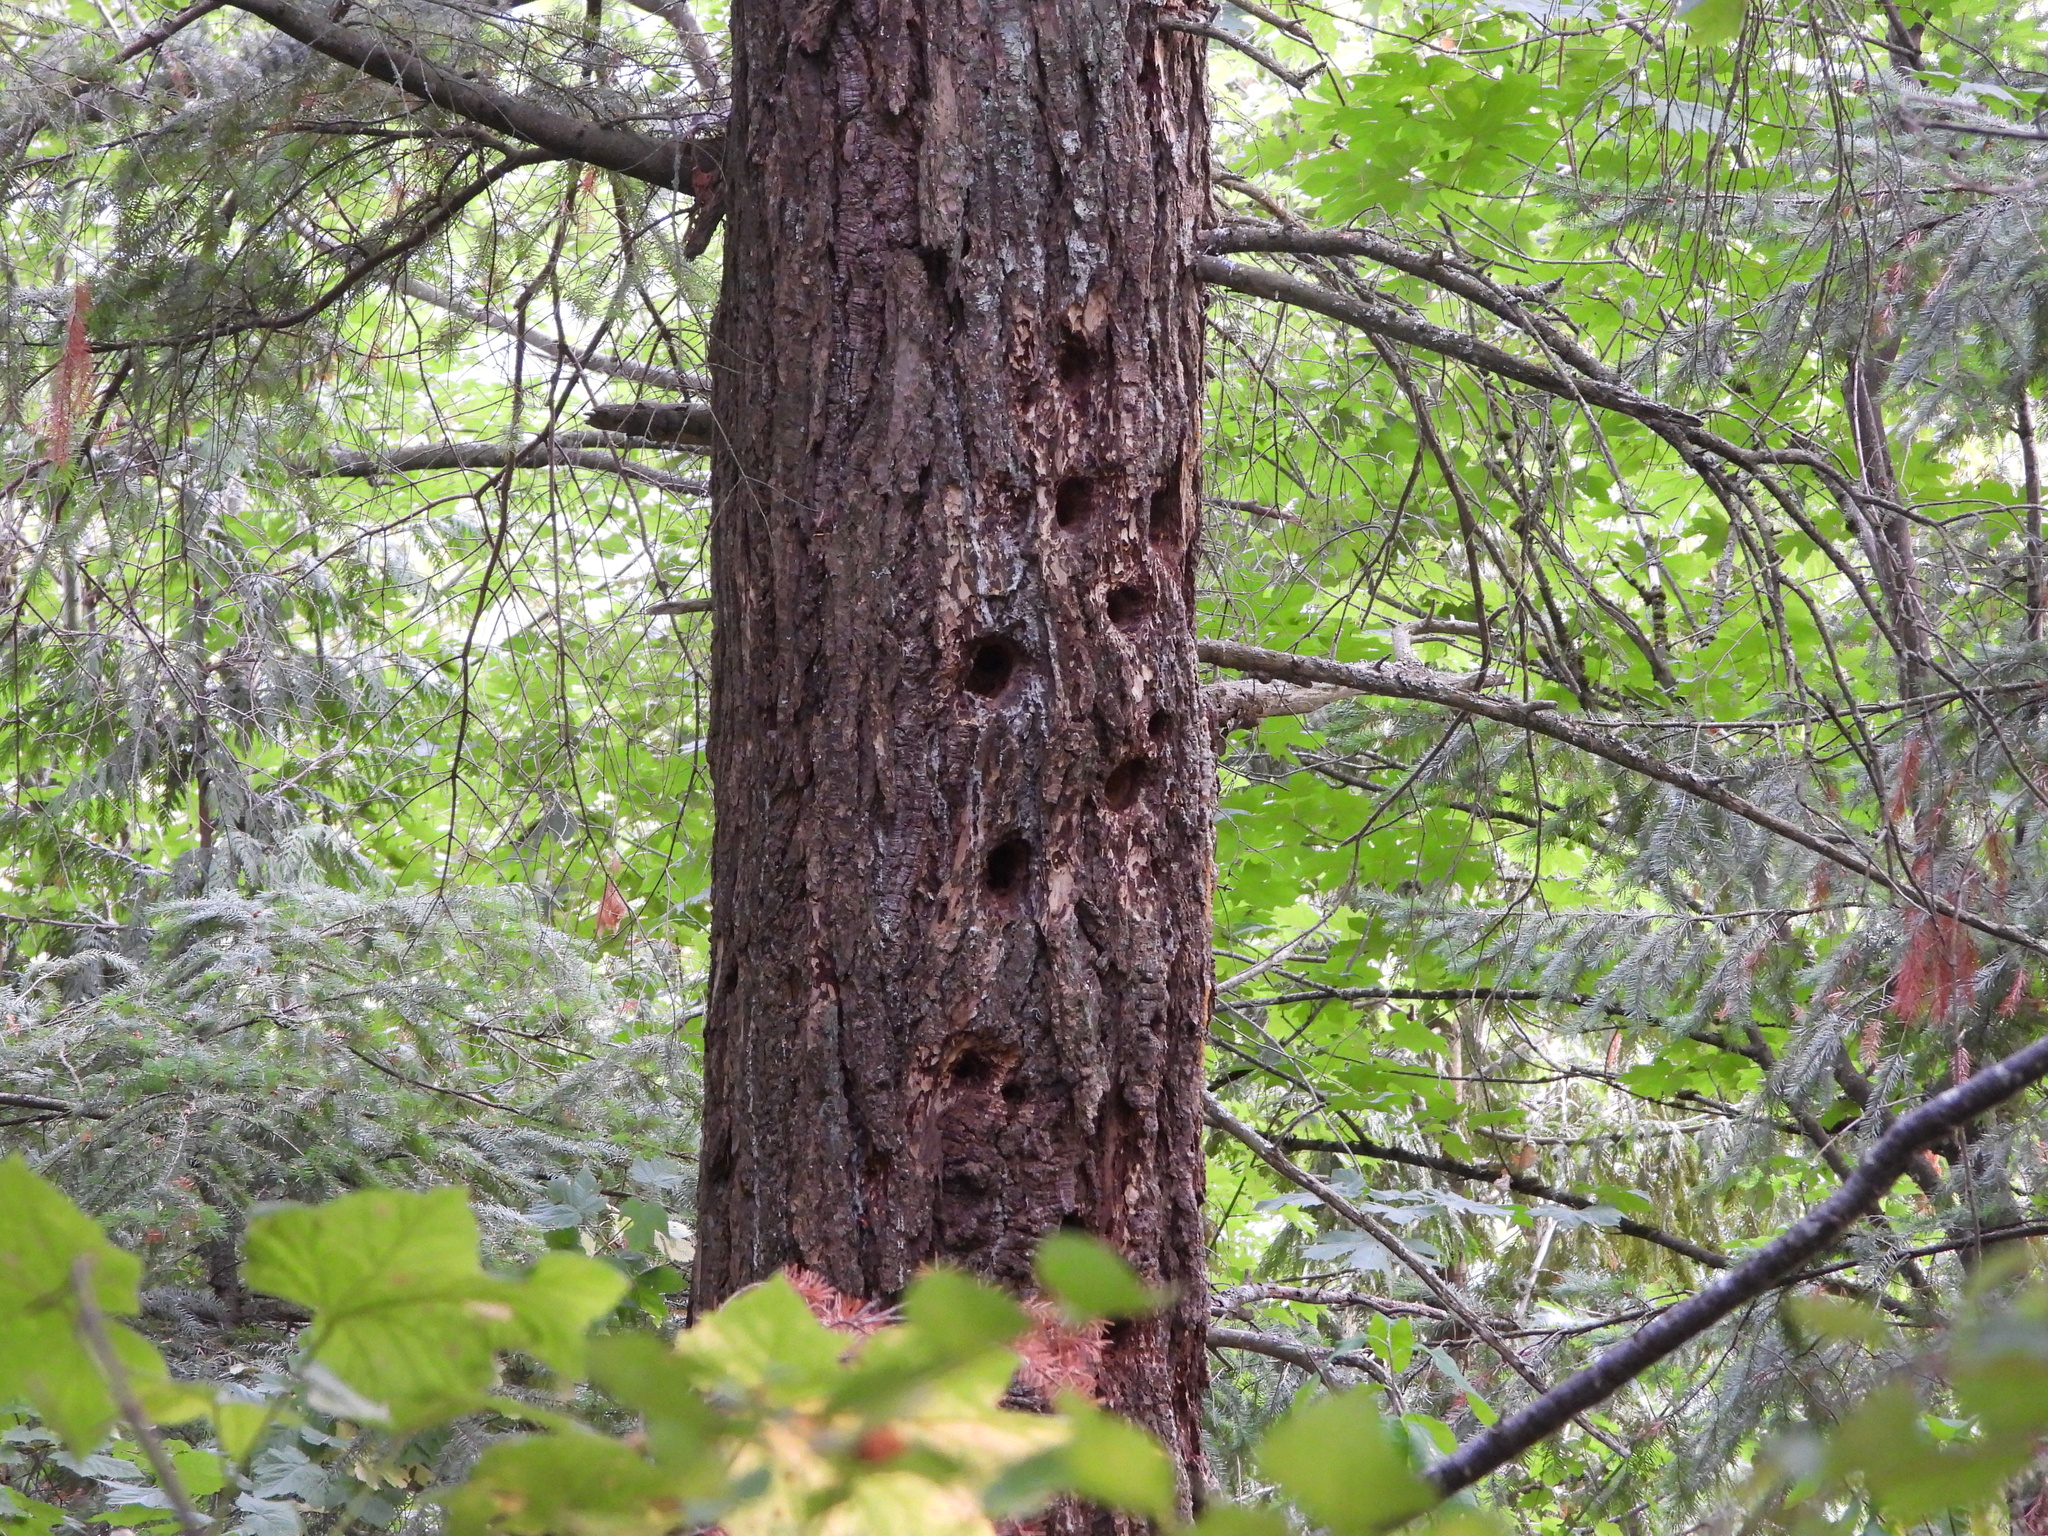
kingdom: Animalia
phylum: Chordata
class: Aves
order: Piciformes
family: Picidae
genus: Dryocopus
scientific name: Dryocopus pileatus
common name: Pileated woodpecker
